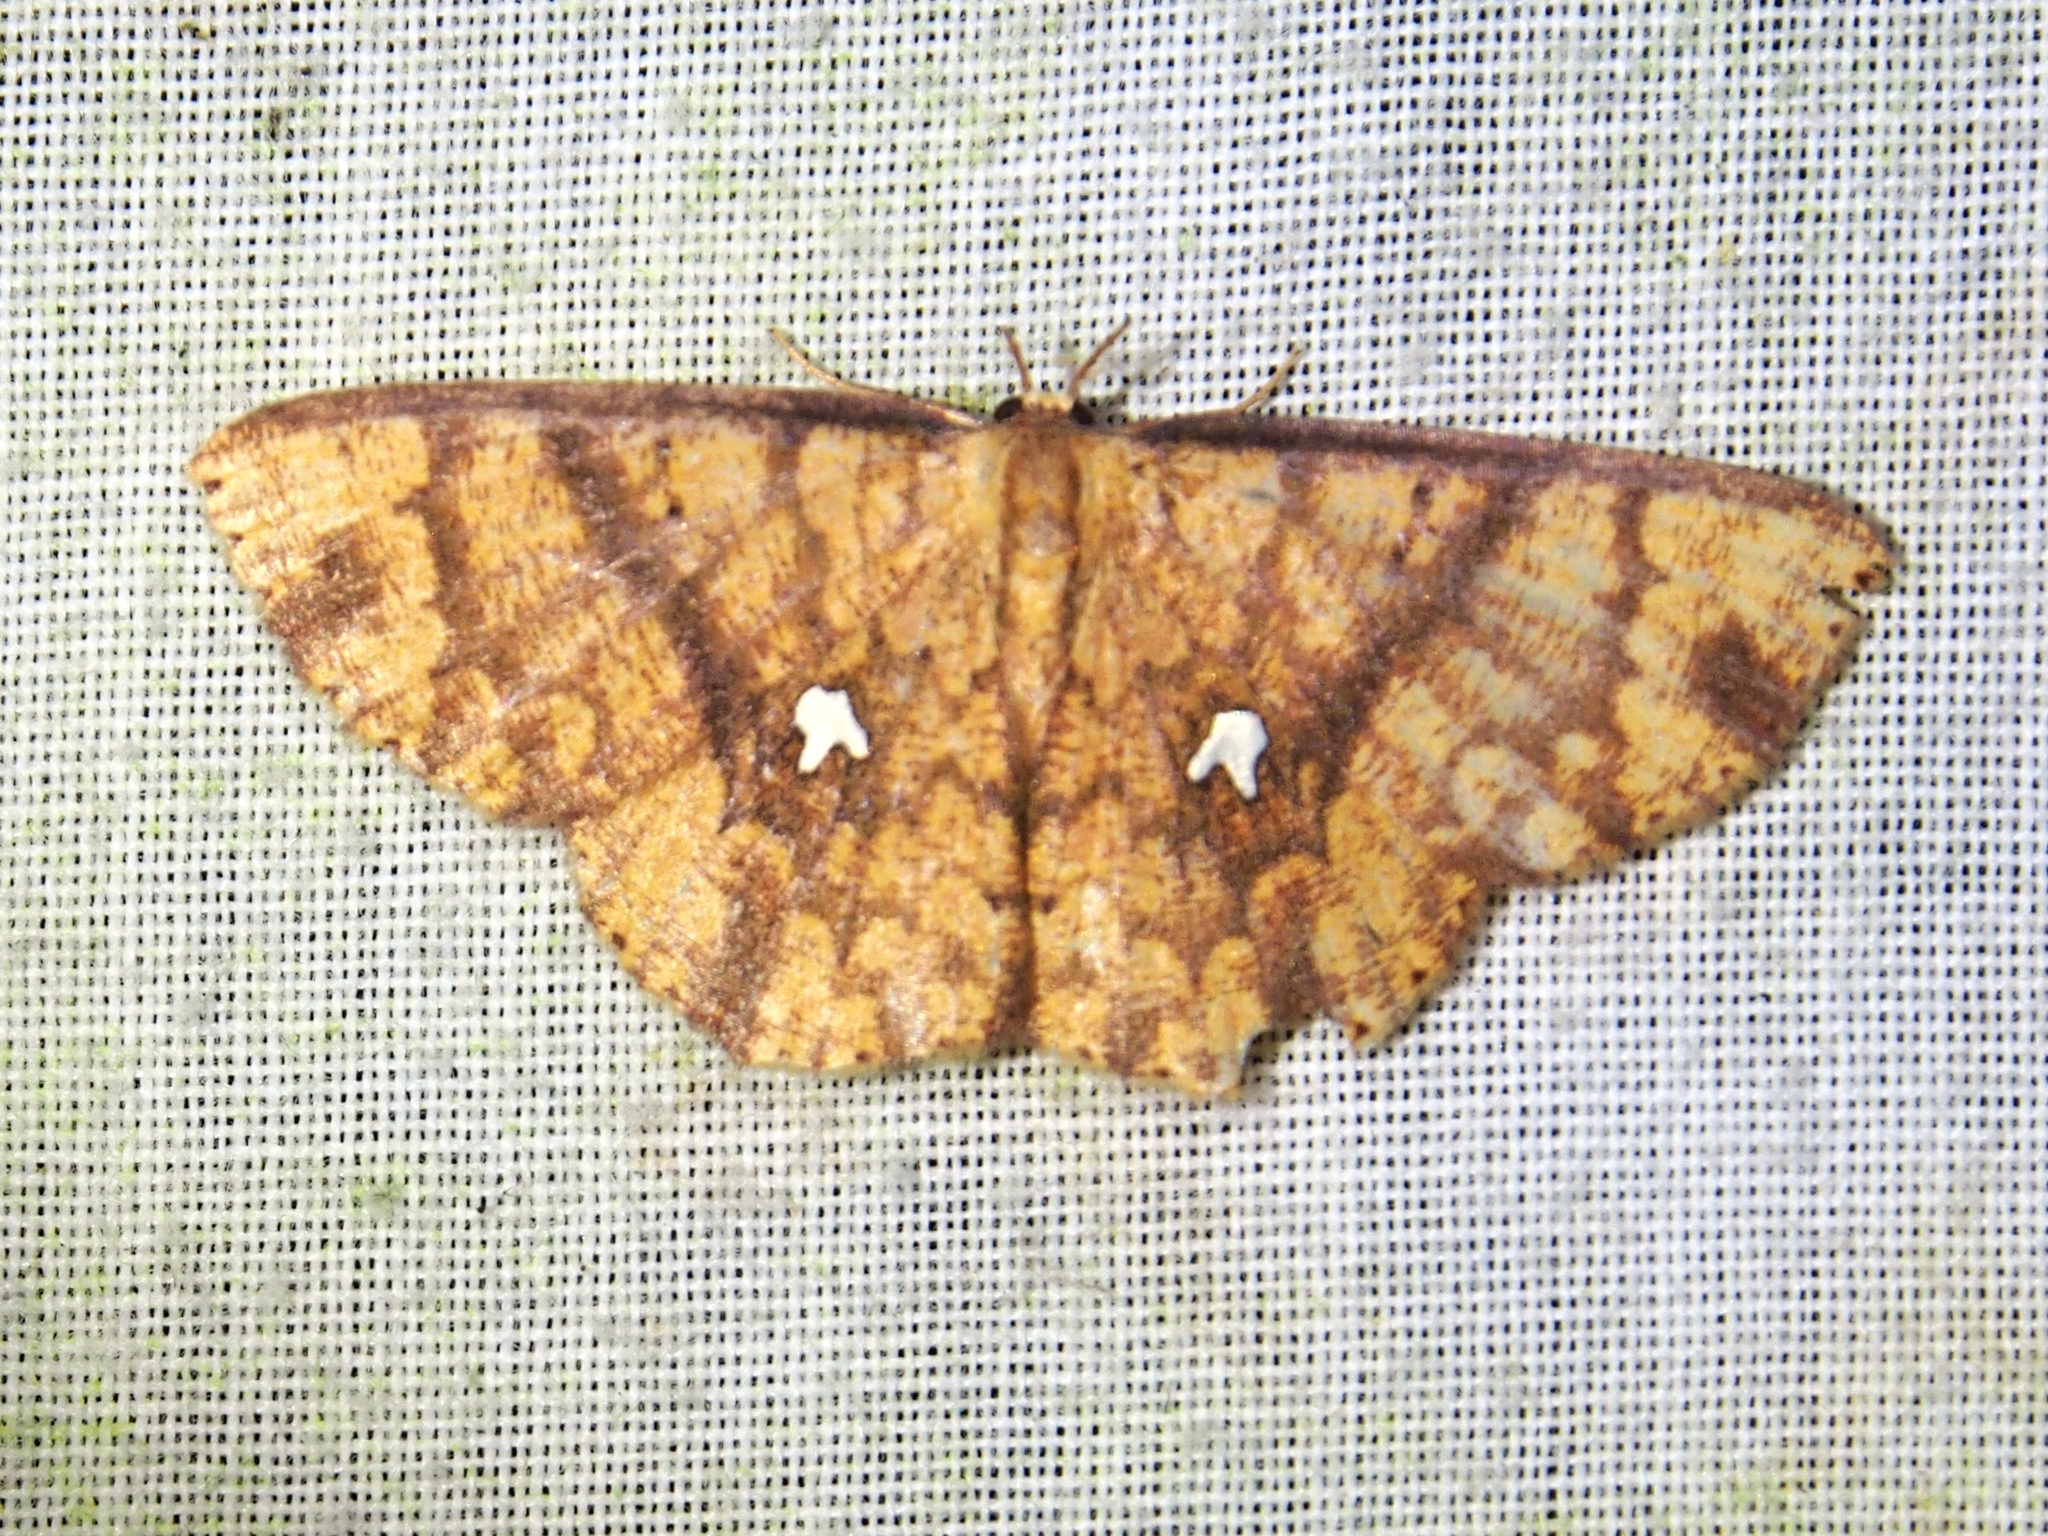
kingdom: Animalia
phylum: Arthropoda
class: Insecta
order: Lepidoptera
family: Geometridae
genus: Cyclophora
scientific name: Cyclophora nodigera
